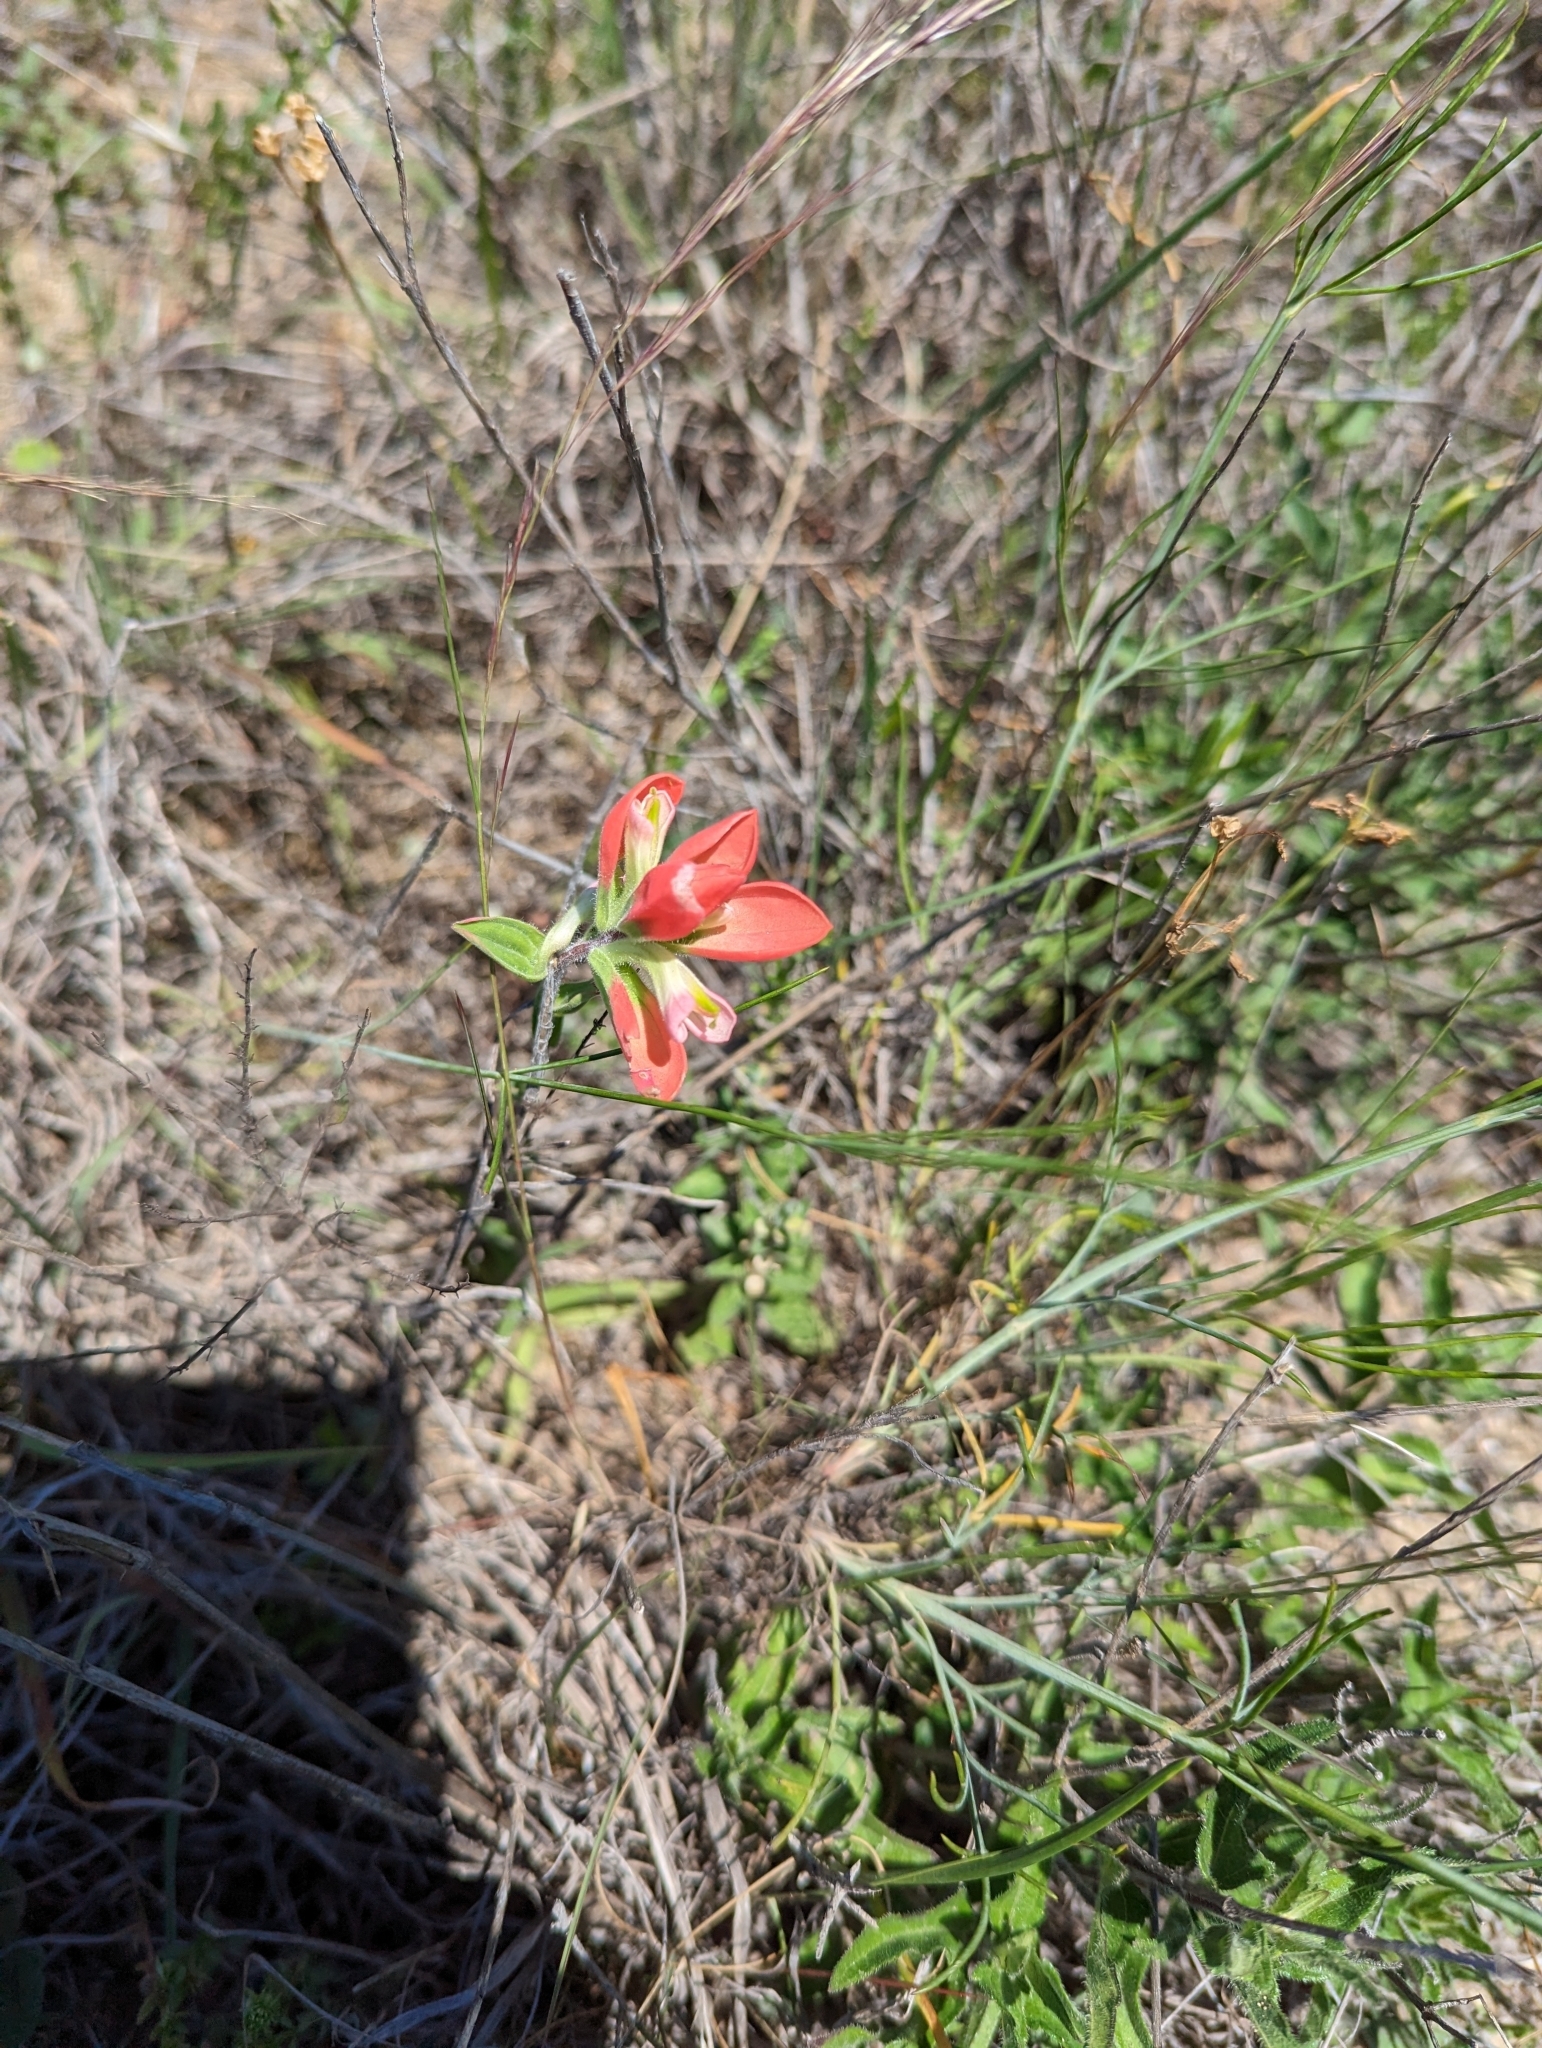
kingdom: Plantae
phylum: Tracheophyta
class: Magnoliopsida
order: Lamiales
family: Orobanchaceae
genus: Castilleja
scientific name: Castilleja indivisa
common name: Texas paintbrush
